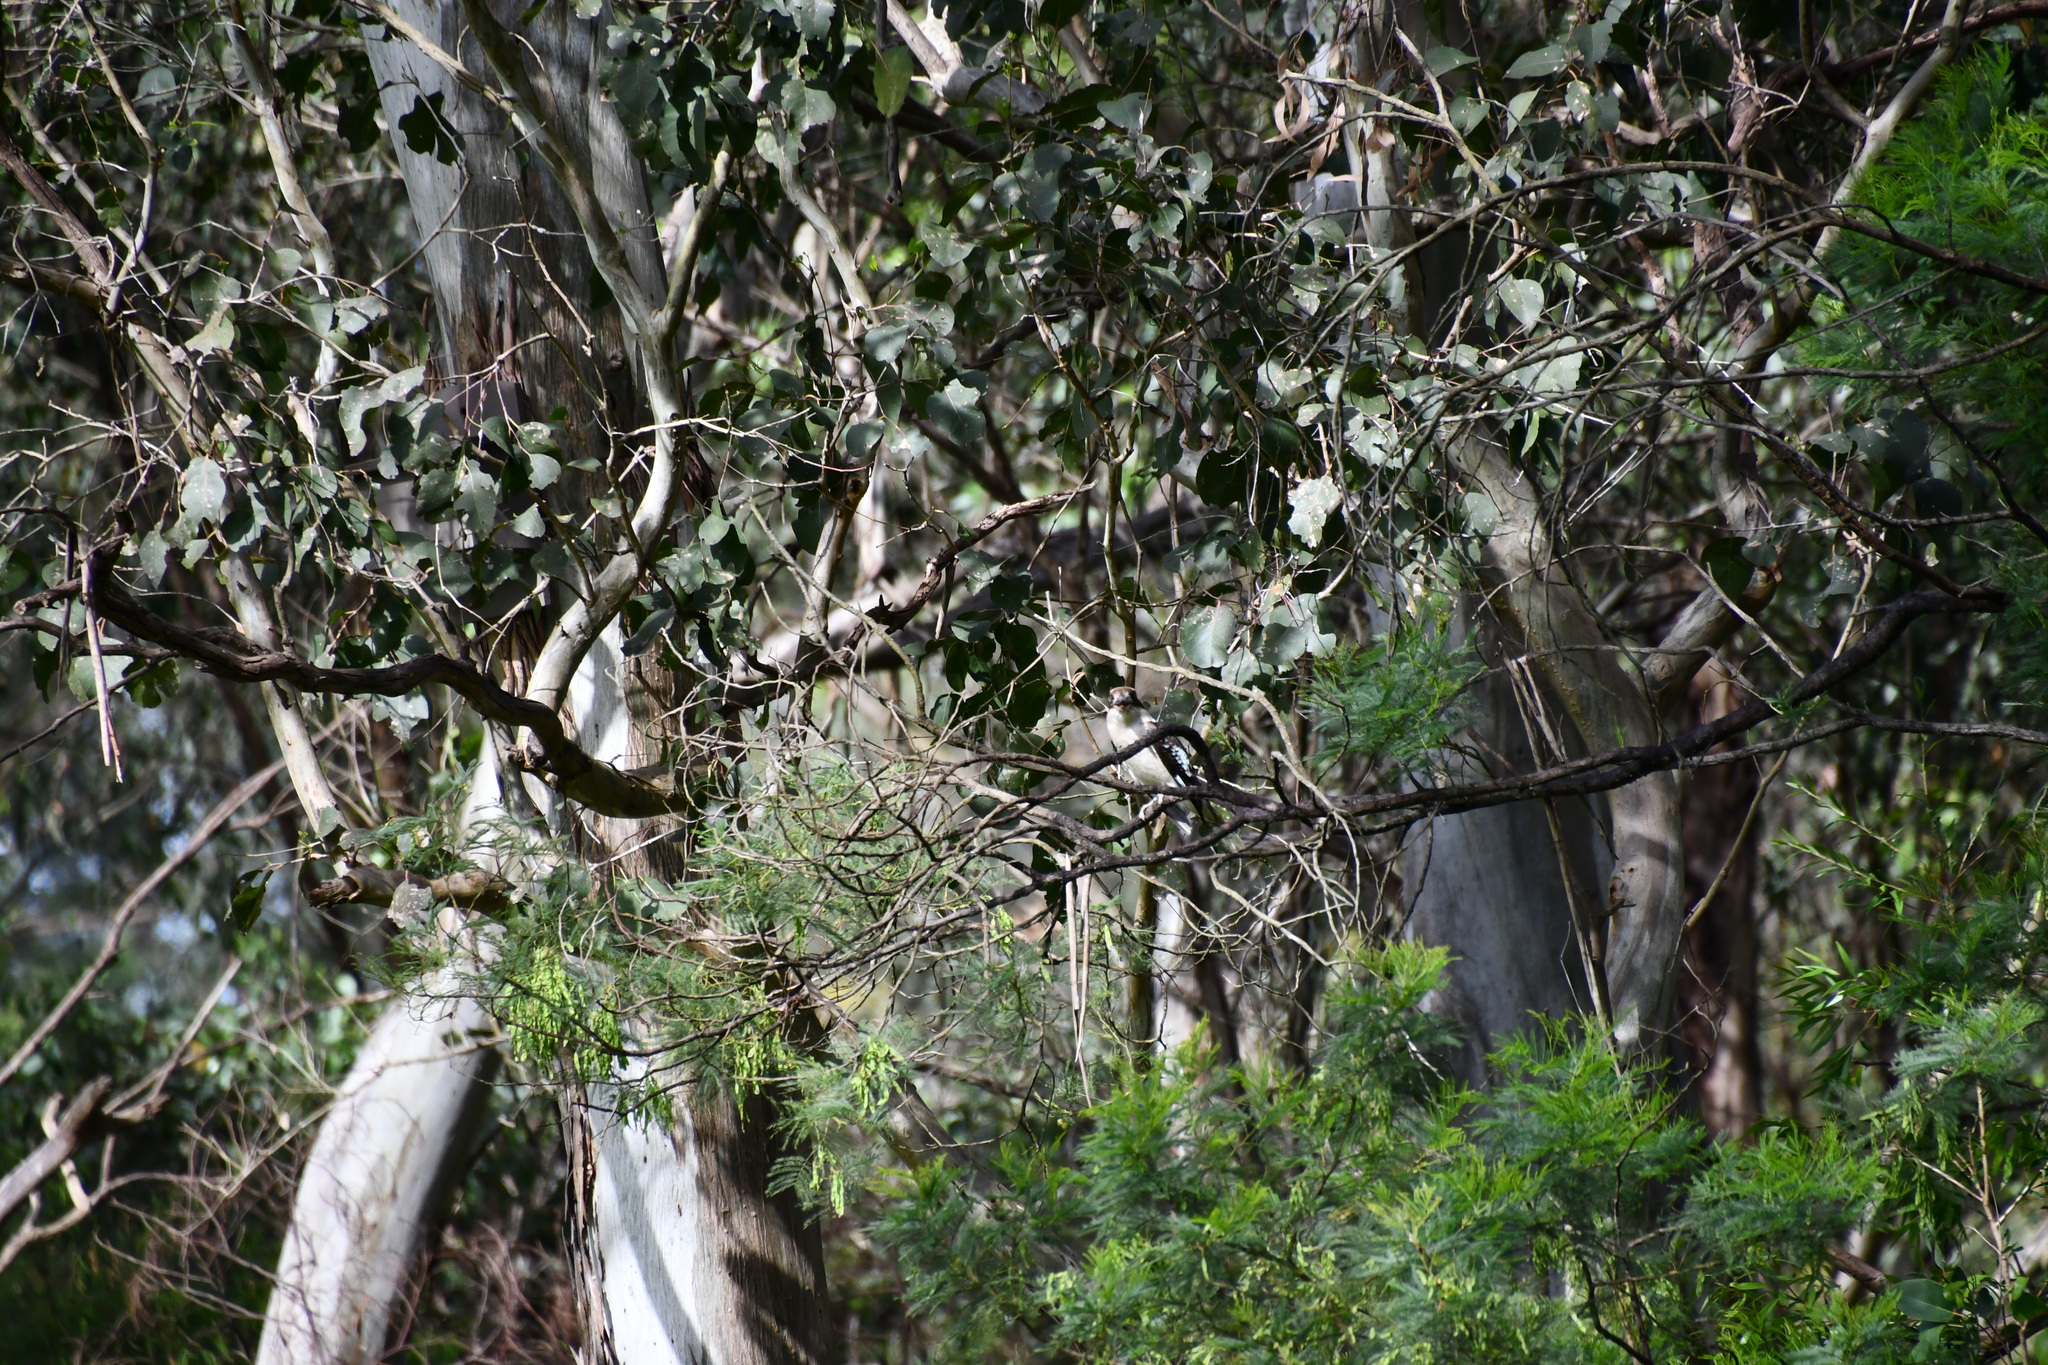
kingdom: Animalia
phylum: Chordata
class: Aves
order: Coraciiformes
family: Alcedinidae
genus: Dacelo
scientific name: Dacelo novaeguineae
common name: Laughing kookaburra
